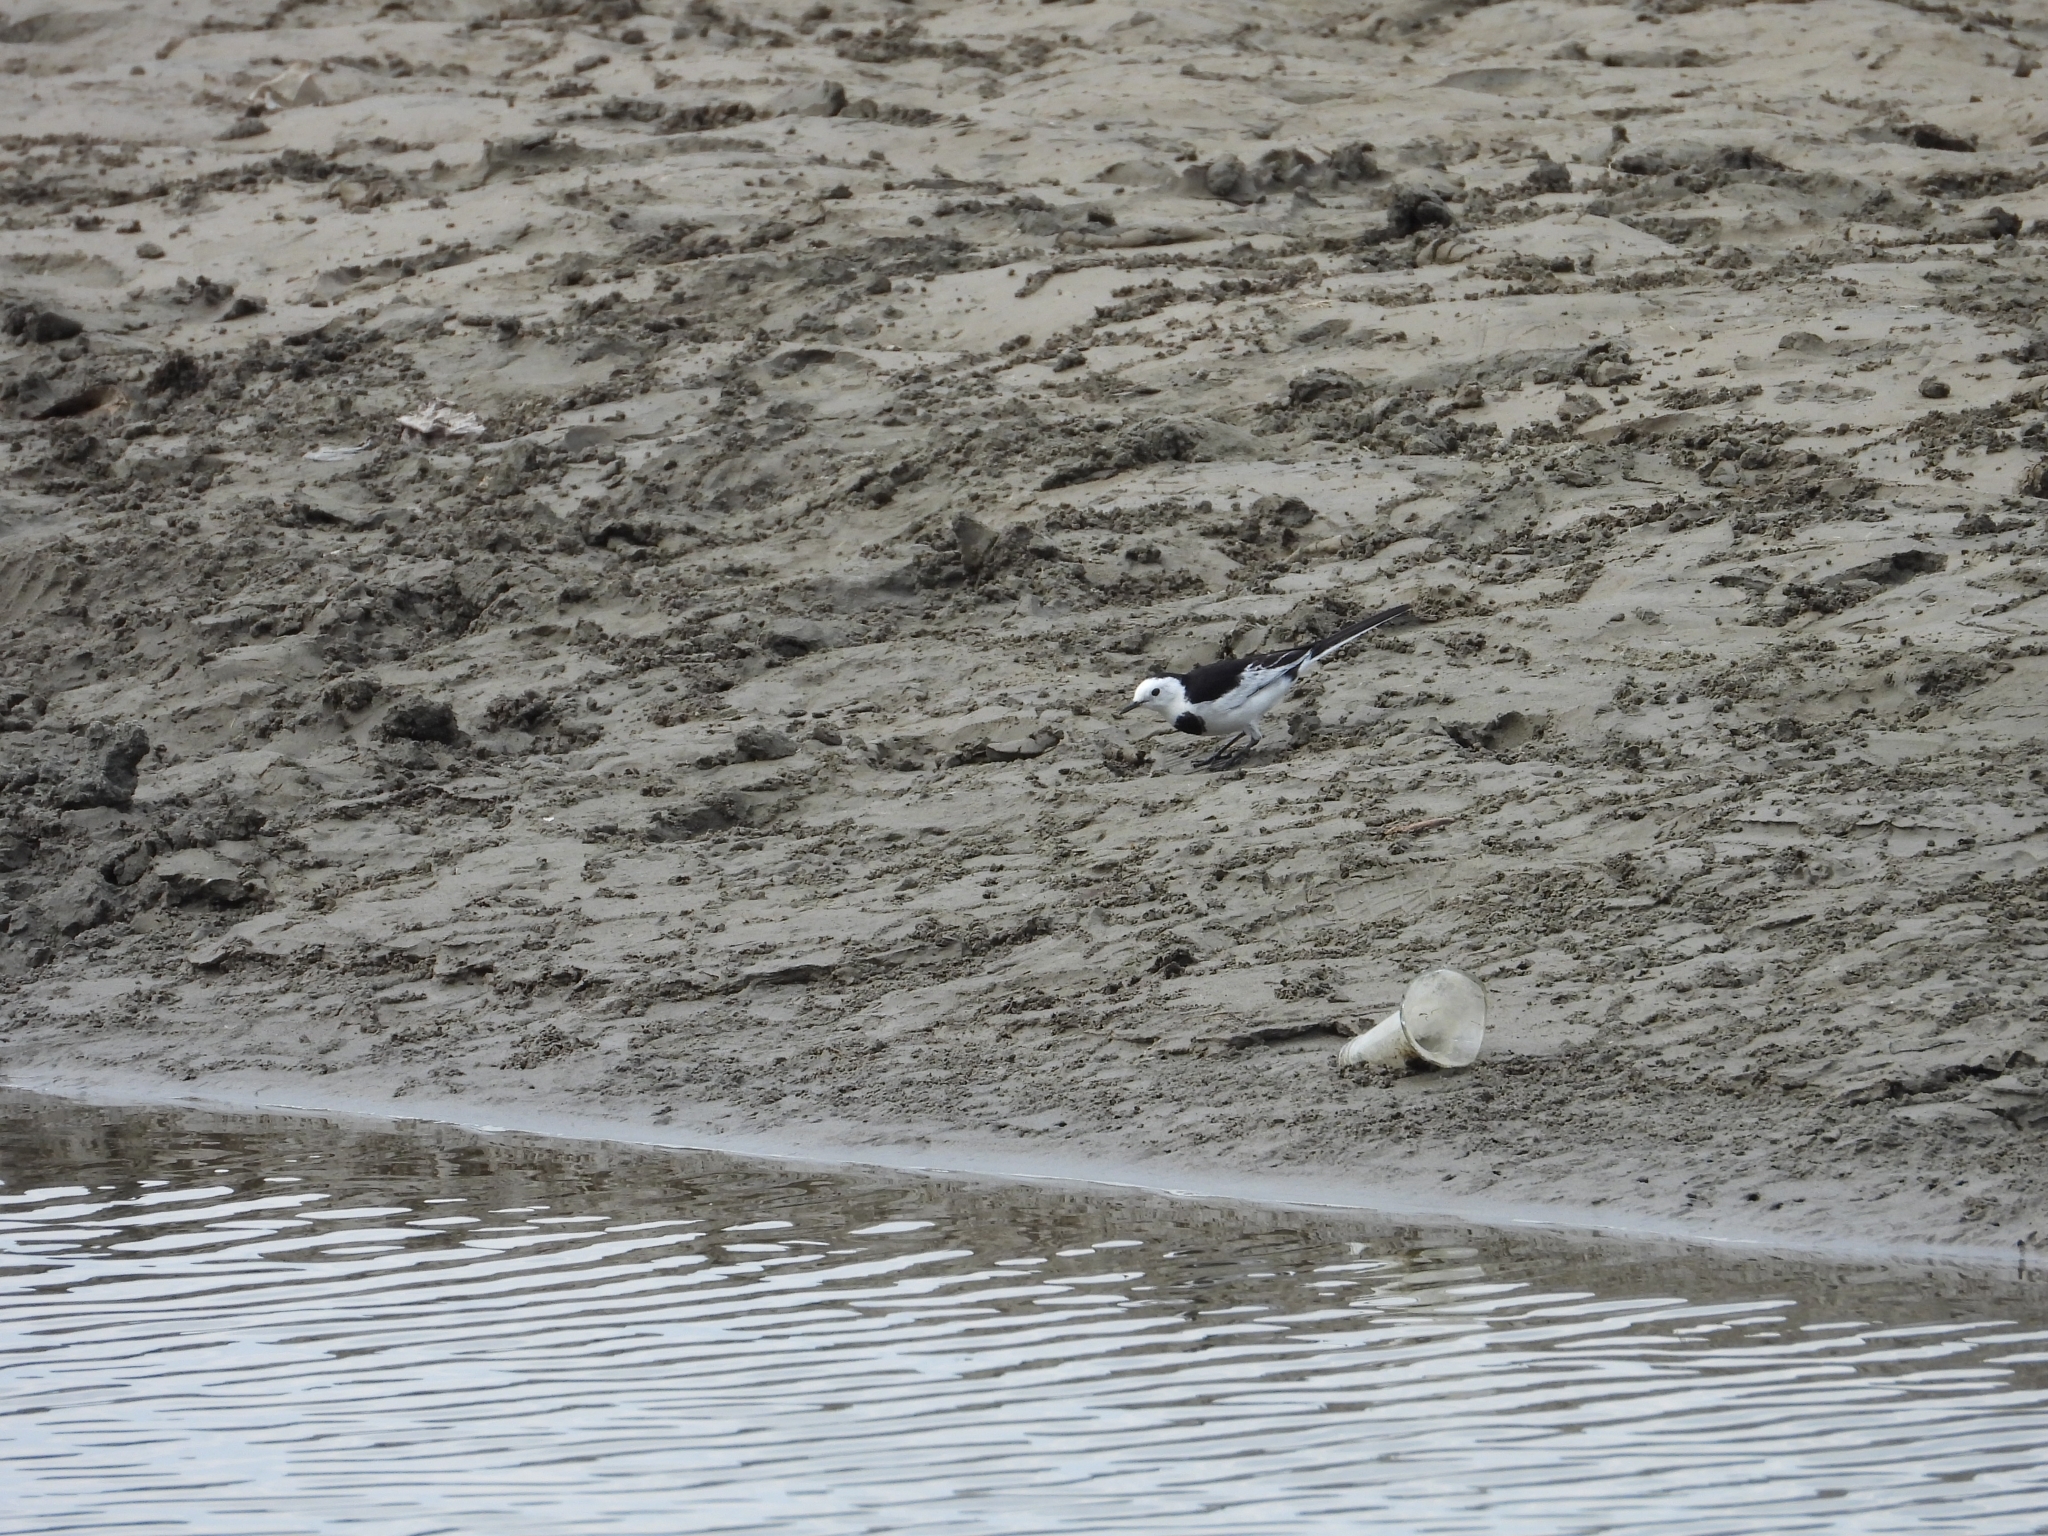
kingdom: Animalia
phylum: Chordata
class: Aves
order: Passeriformes
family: Motacillidae
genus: Motacilla
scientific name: Motacilla alba
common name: White wagtail
